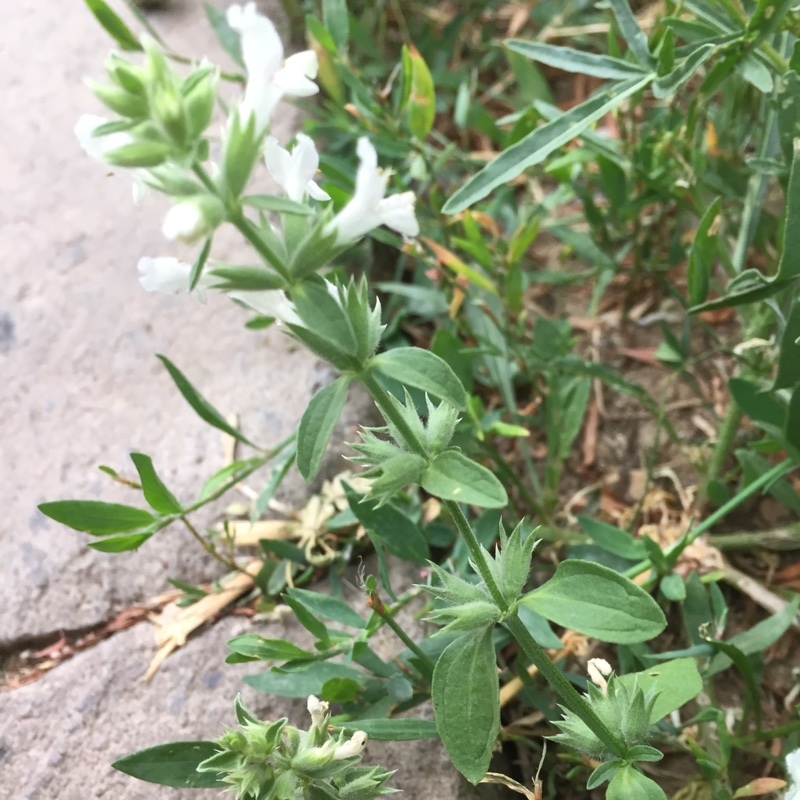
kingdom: Plantae
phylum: Tracheophyta
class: Magnoliopsida
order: Lamiales
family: Lamiaceae
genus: Stachys
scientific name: Stachys recta
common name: Perennial yellow-woundwort
